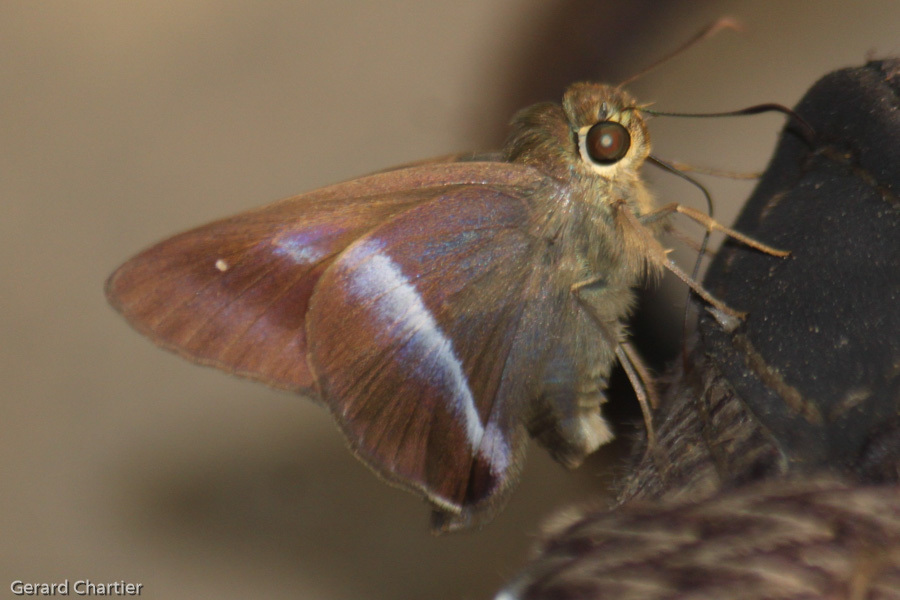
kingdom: Animalia
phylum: Arthropoda
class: Insecta
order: Lepidoptera
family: Hesperiidae
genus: Hasora
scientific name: Hasora vitta
